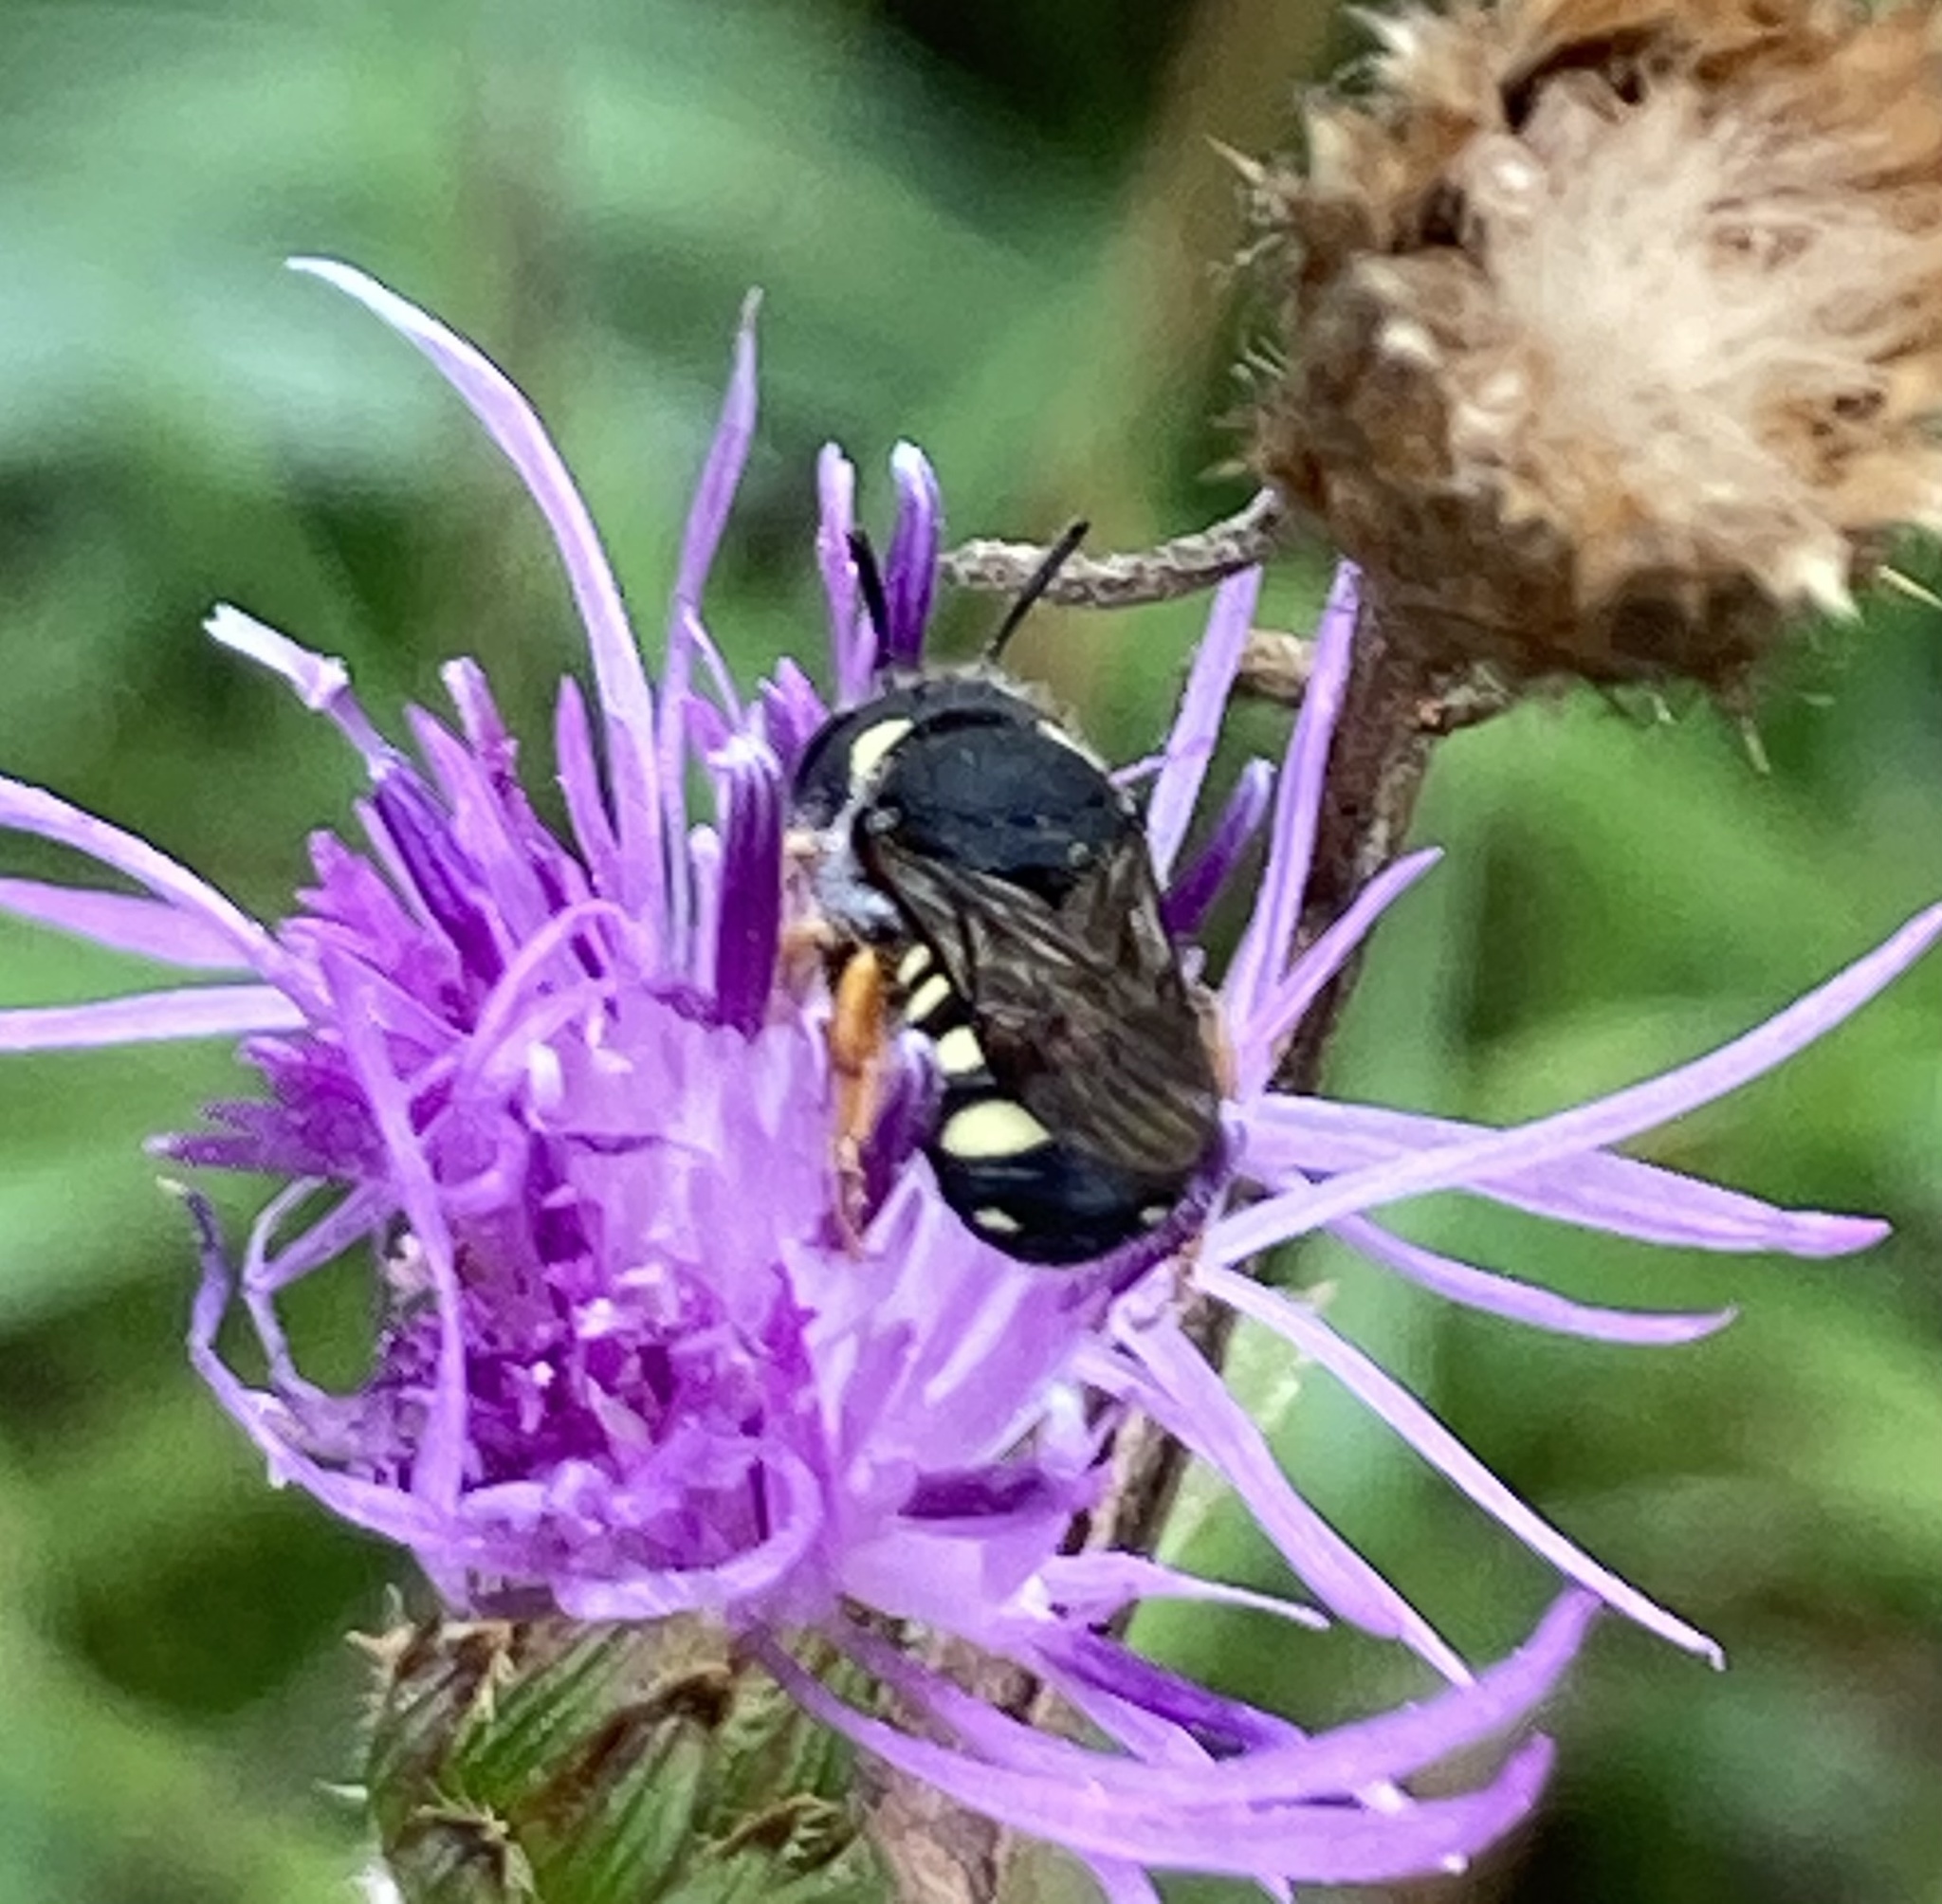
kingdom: Animalia
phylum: Arthropoda
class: Insecta
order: Hymenoptera
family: Megachilidae
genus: Pseudoanthidium
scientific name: Pseudoanthidium nanum
